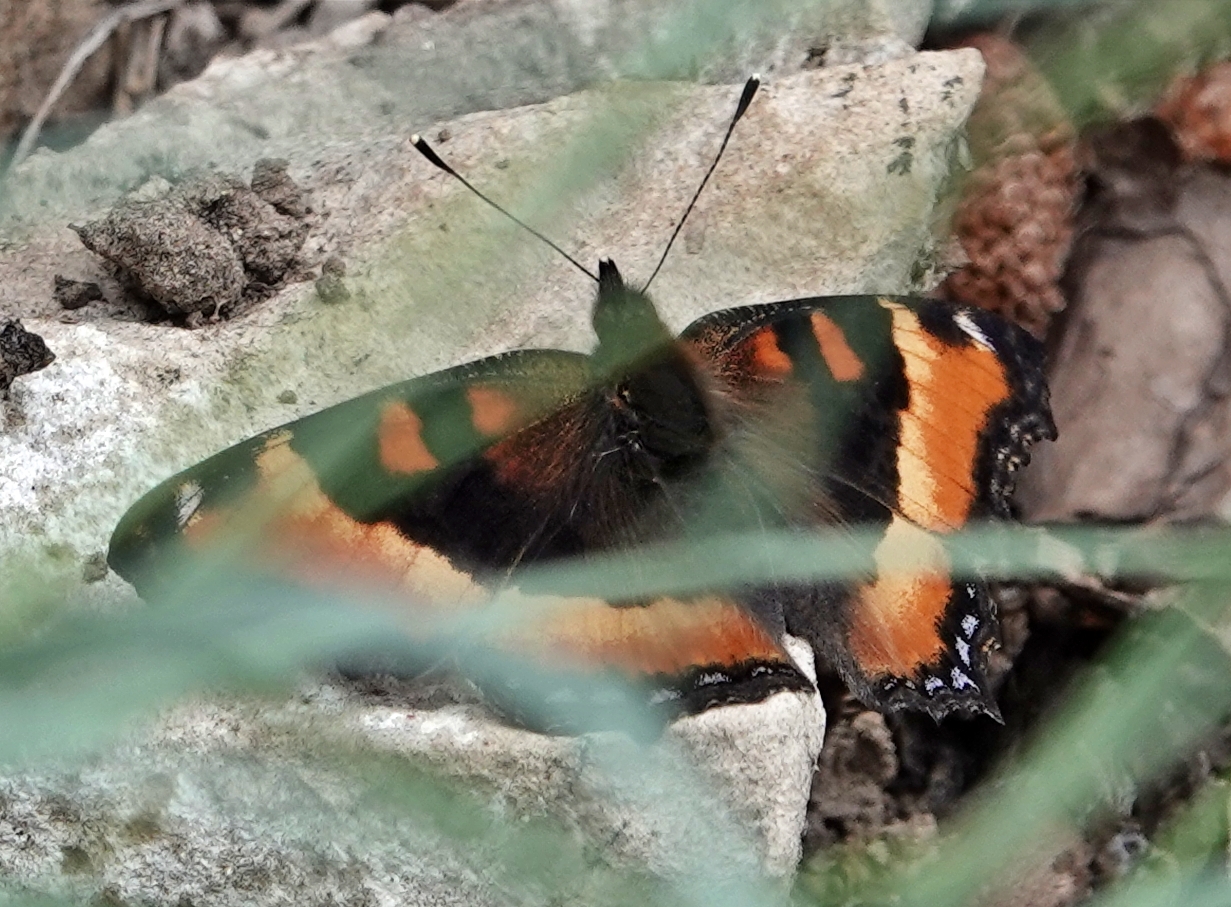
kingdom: Animalia
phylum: Arthropoda
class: Insecta
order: Lepidoptera
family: Nymphalidae
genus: Aglais
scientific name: Aglais milberti
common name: Milbert's tortoiseshell
